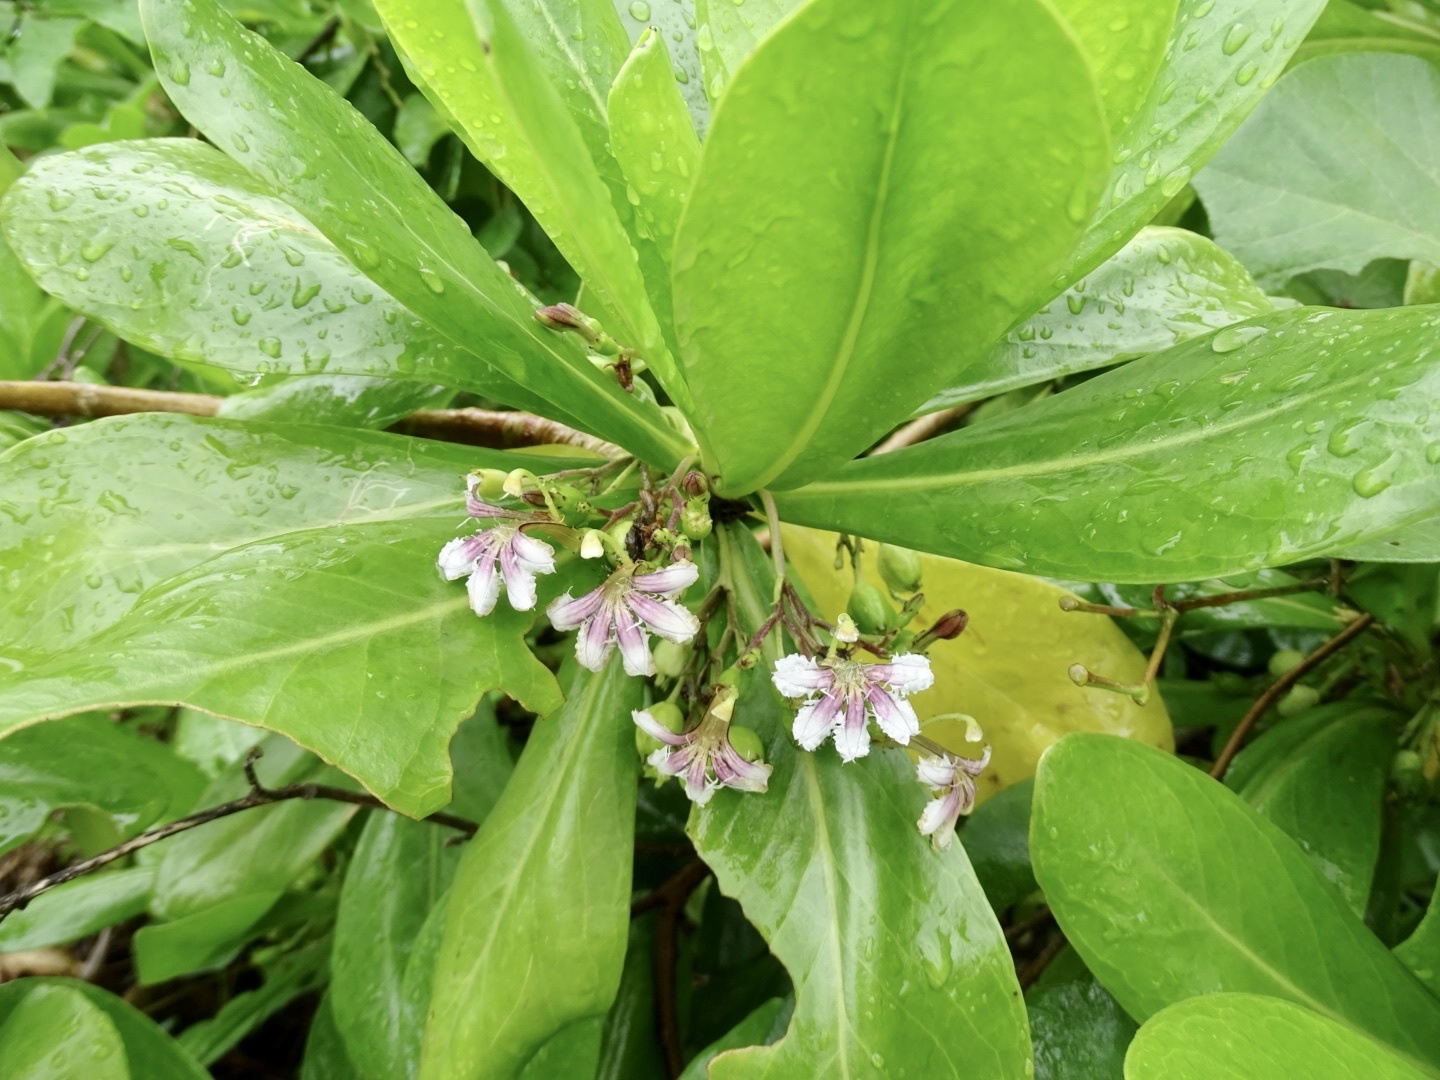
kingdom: Plantae
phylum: Tracheophyta
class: Magnoliopsida
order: Asterales
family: Goodeniaceae
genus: Scaevola
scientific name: Scaevola taccada
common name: Sea lettucetree
